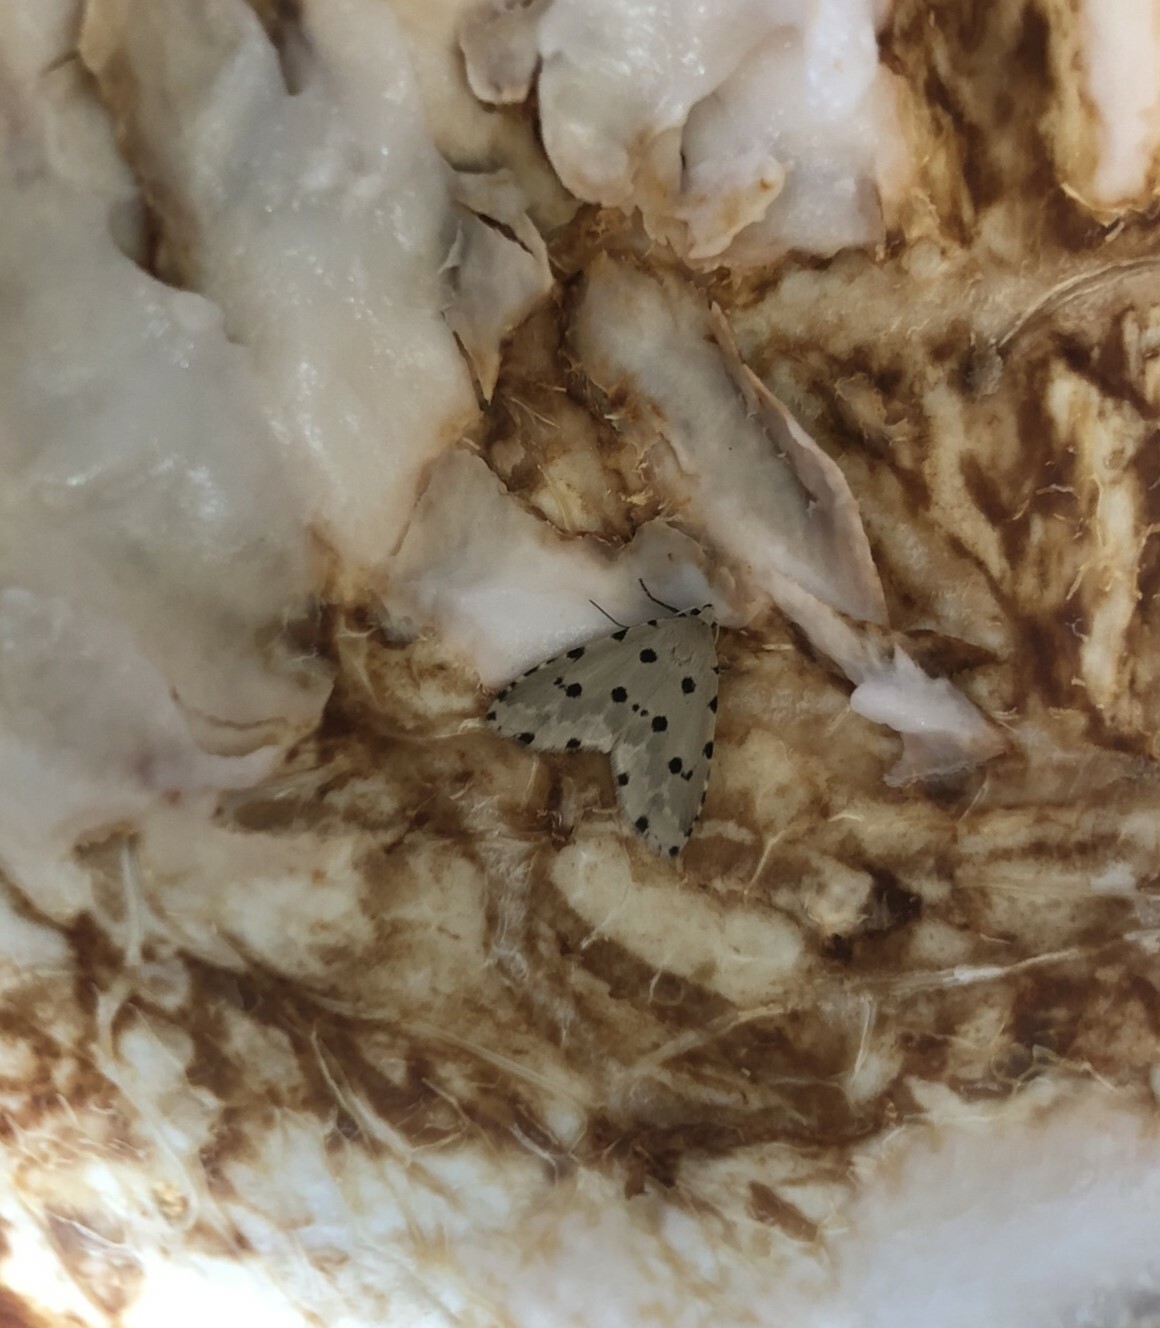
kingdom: Animalia
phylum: Arthropoda
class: Insecta
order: Lepidoptera
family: Noctuidae
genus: Metaemene
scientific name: Metaemene atrigutta
